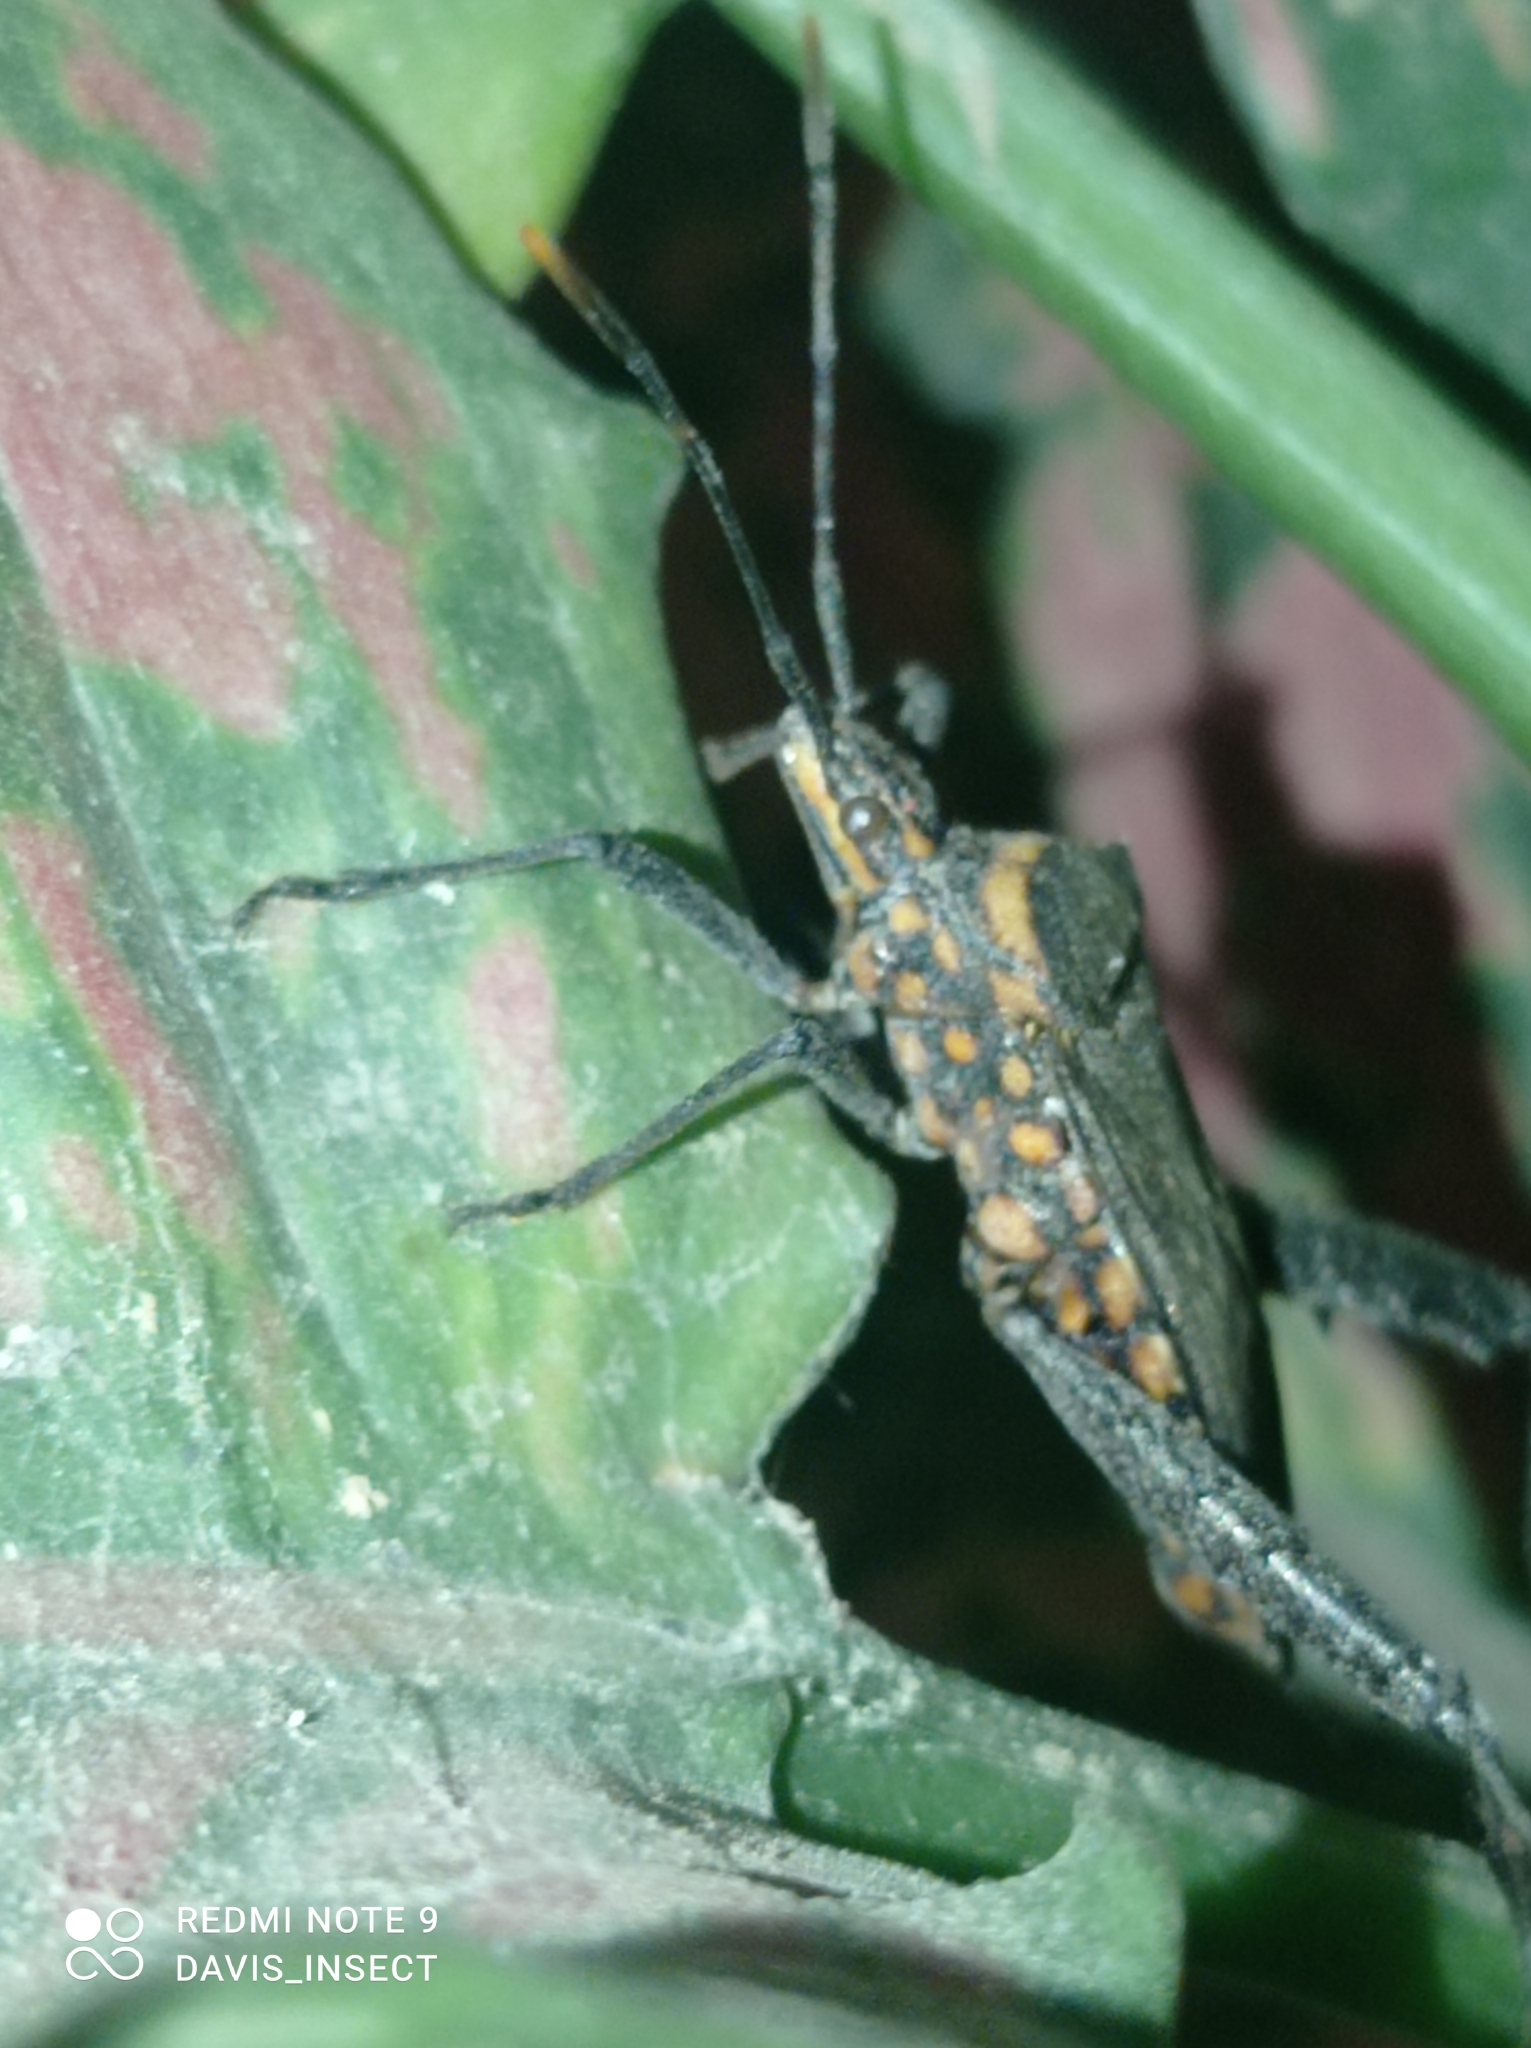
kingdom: Animalia
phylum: Arthropoda
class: Insecta
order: Hemiptera
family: Coreidae
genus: Leptoglossus
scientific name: Leptoglossus gonagra
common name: Citron bug
